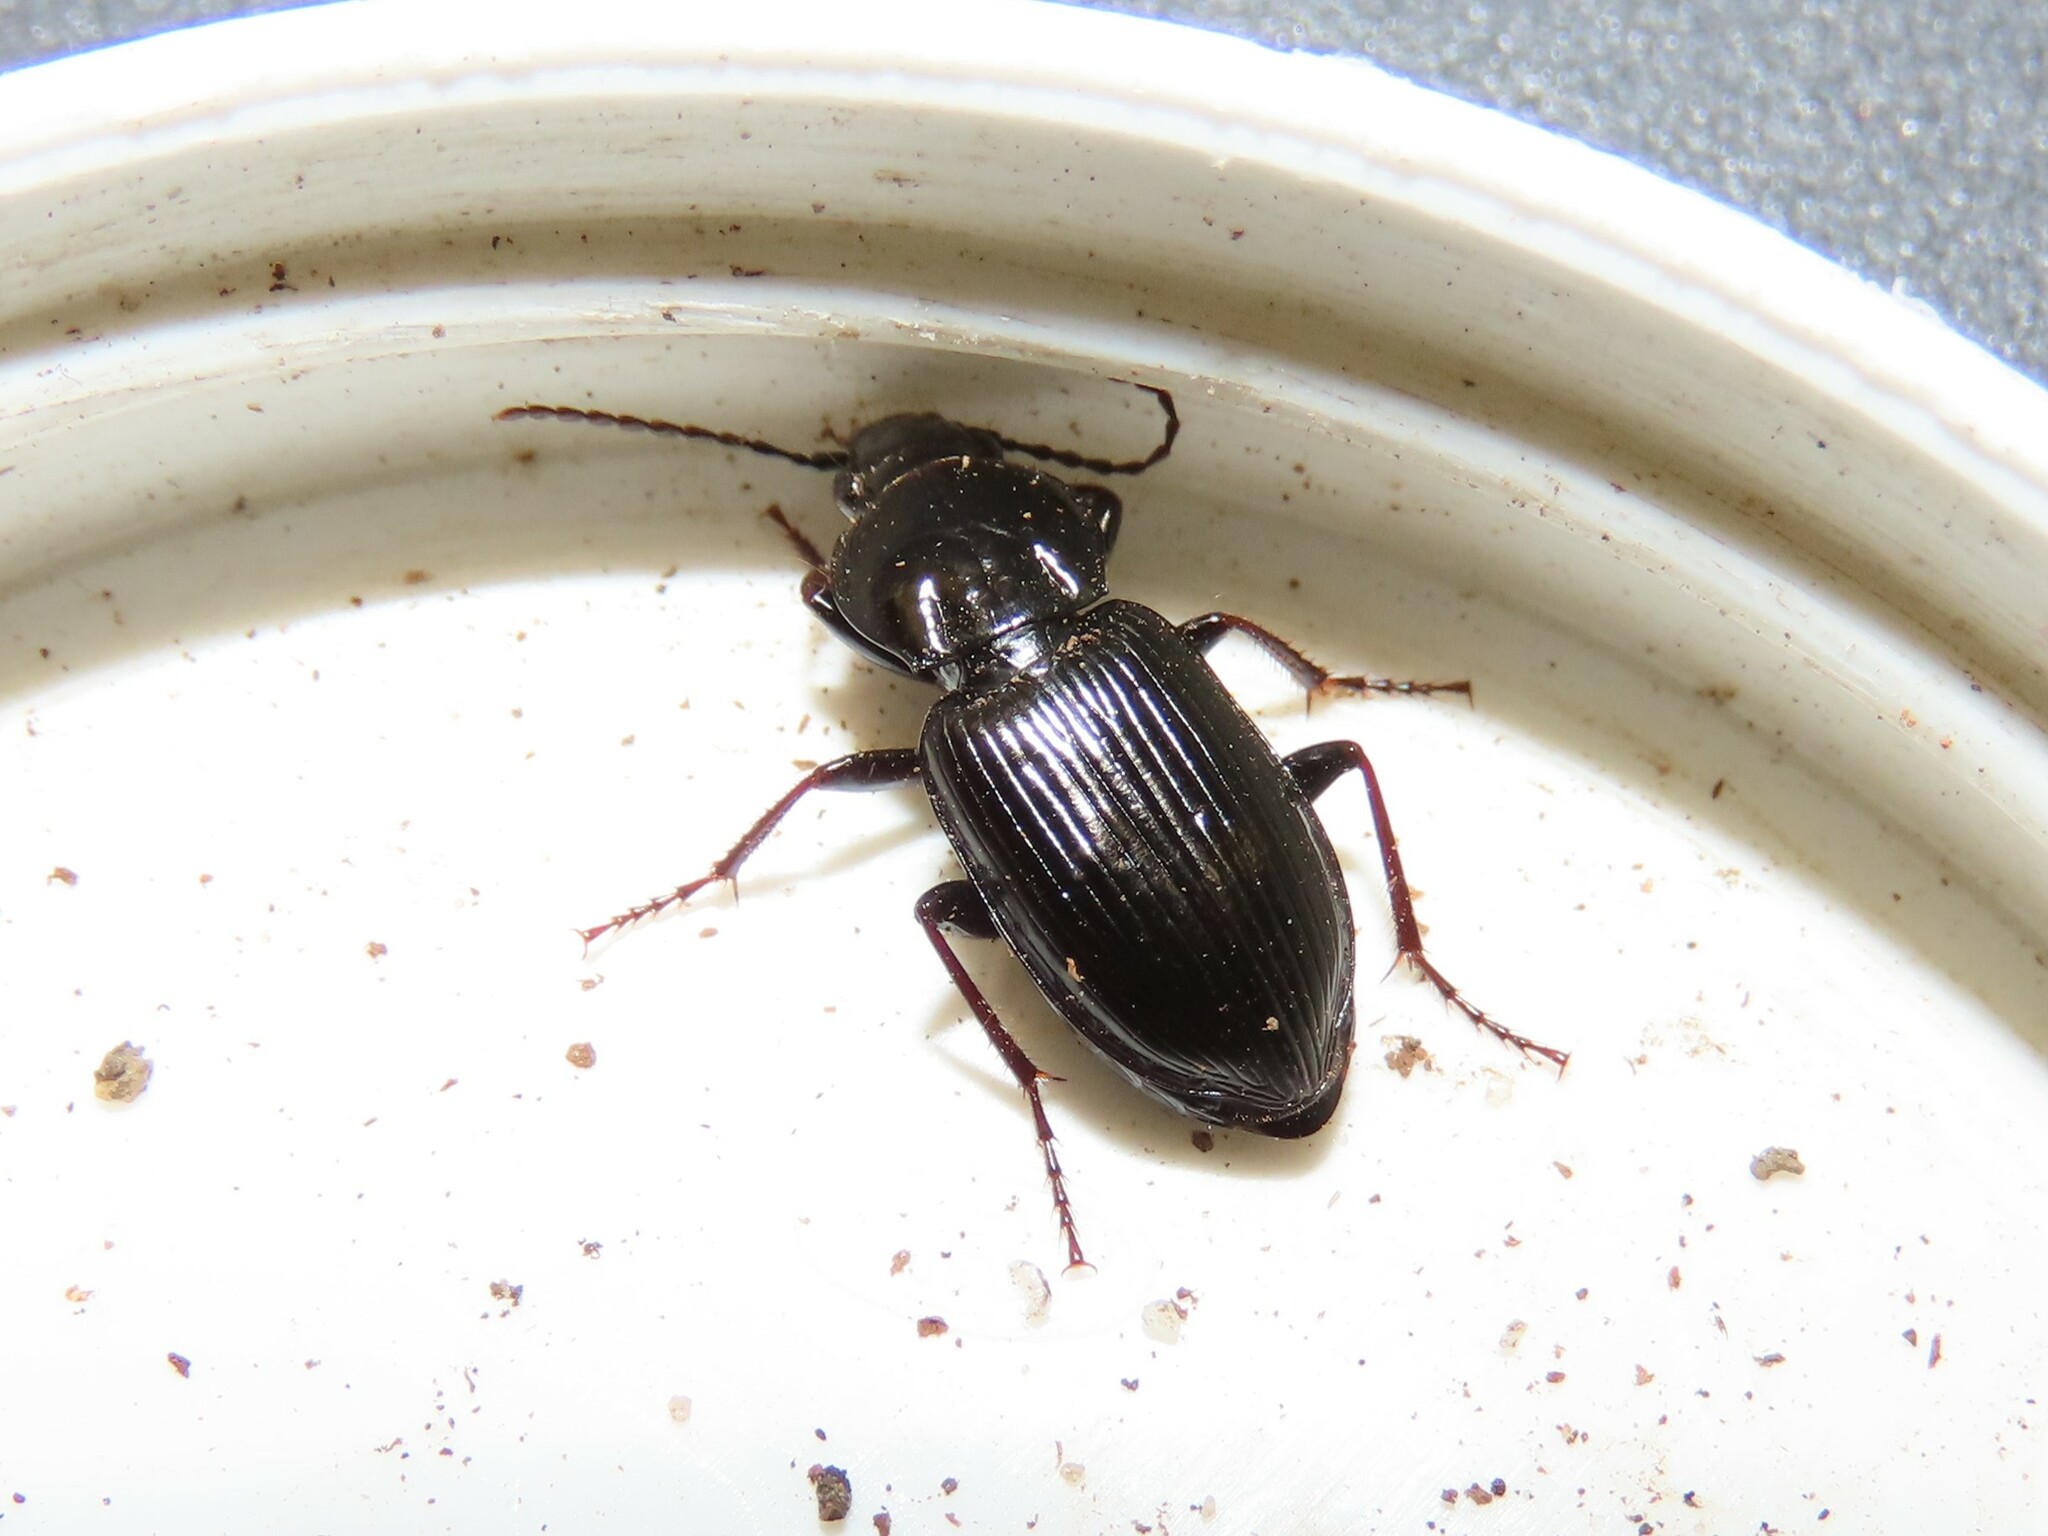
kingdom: Animalia
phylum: Arthropoda
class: Insecta
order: Coleoptera
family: Carabidae
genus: Pterostichus
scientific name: Pterostichus mutus
